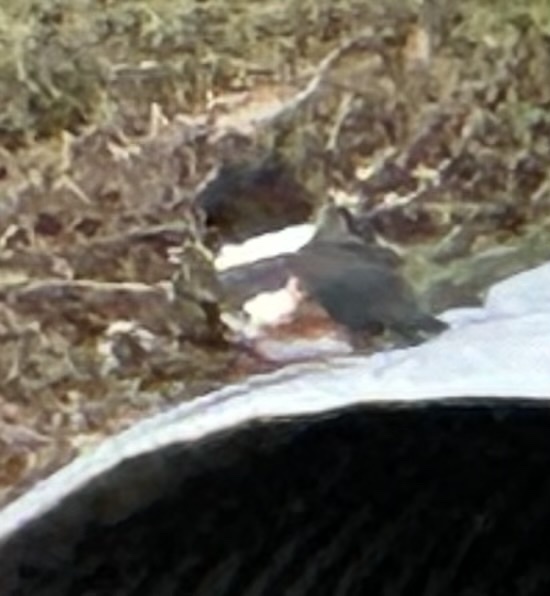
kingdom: Animalia
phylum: Chordata
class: Aves
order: Coraciiformes
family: Alcedinidae
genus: Megaceryle
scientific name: Megaceryle alcyon
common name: Belted kingfisher
